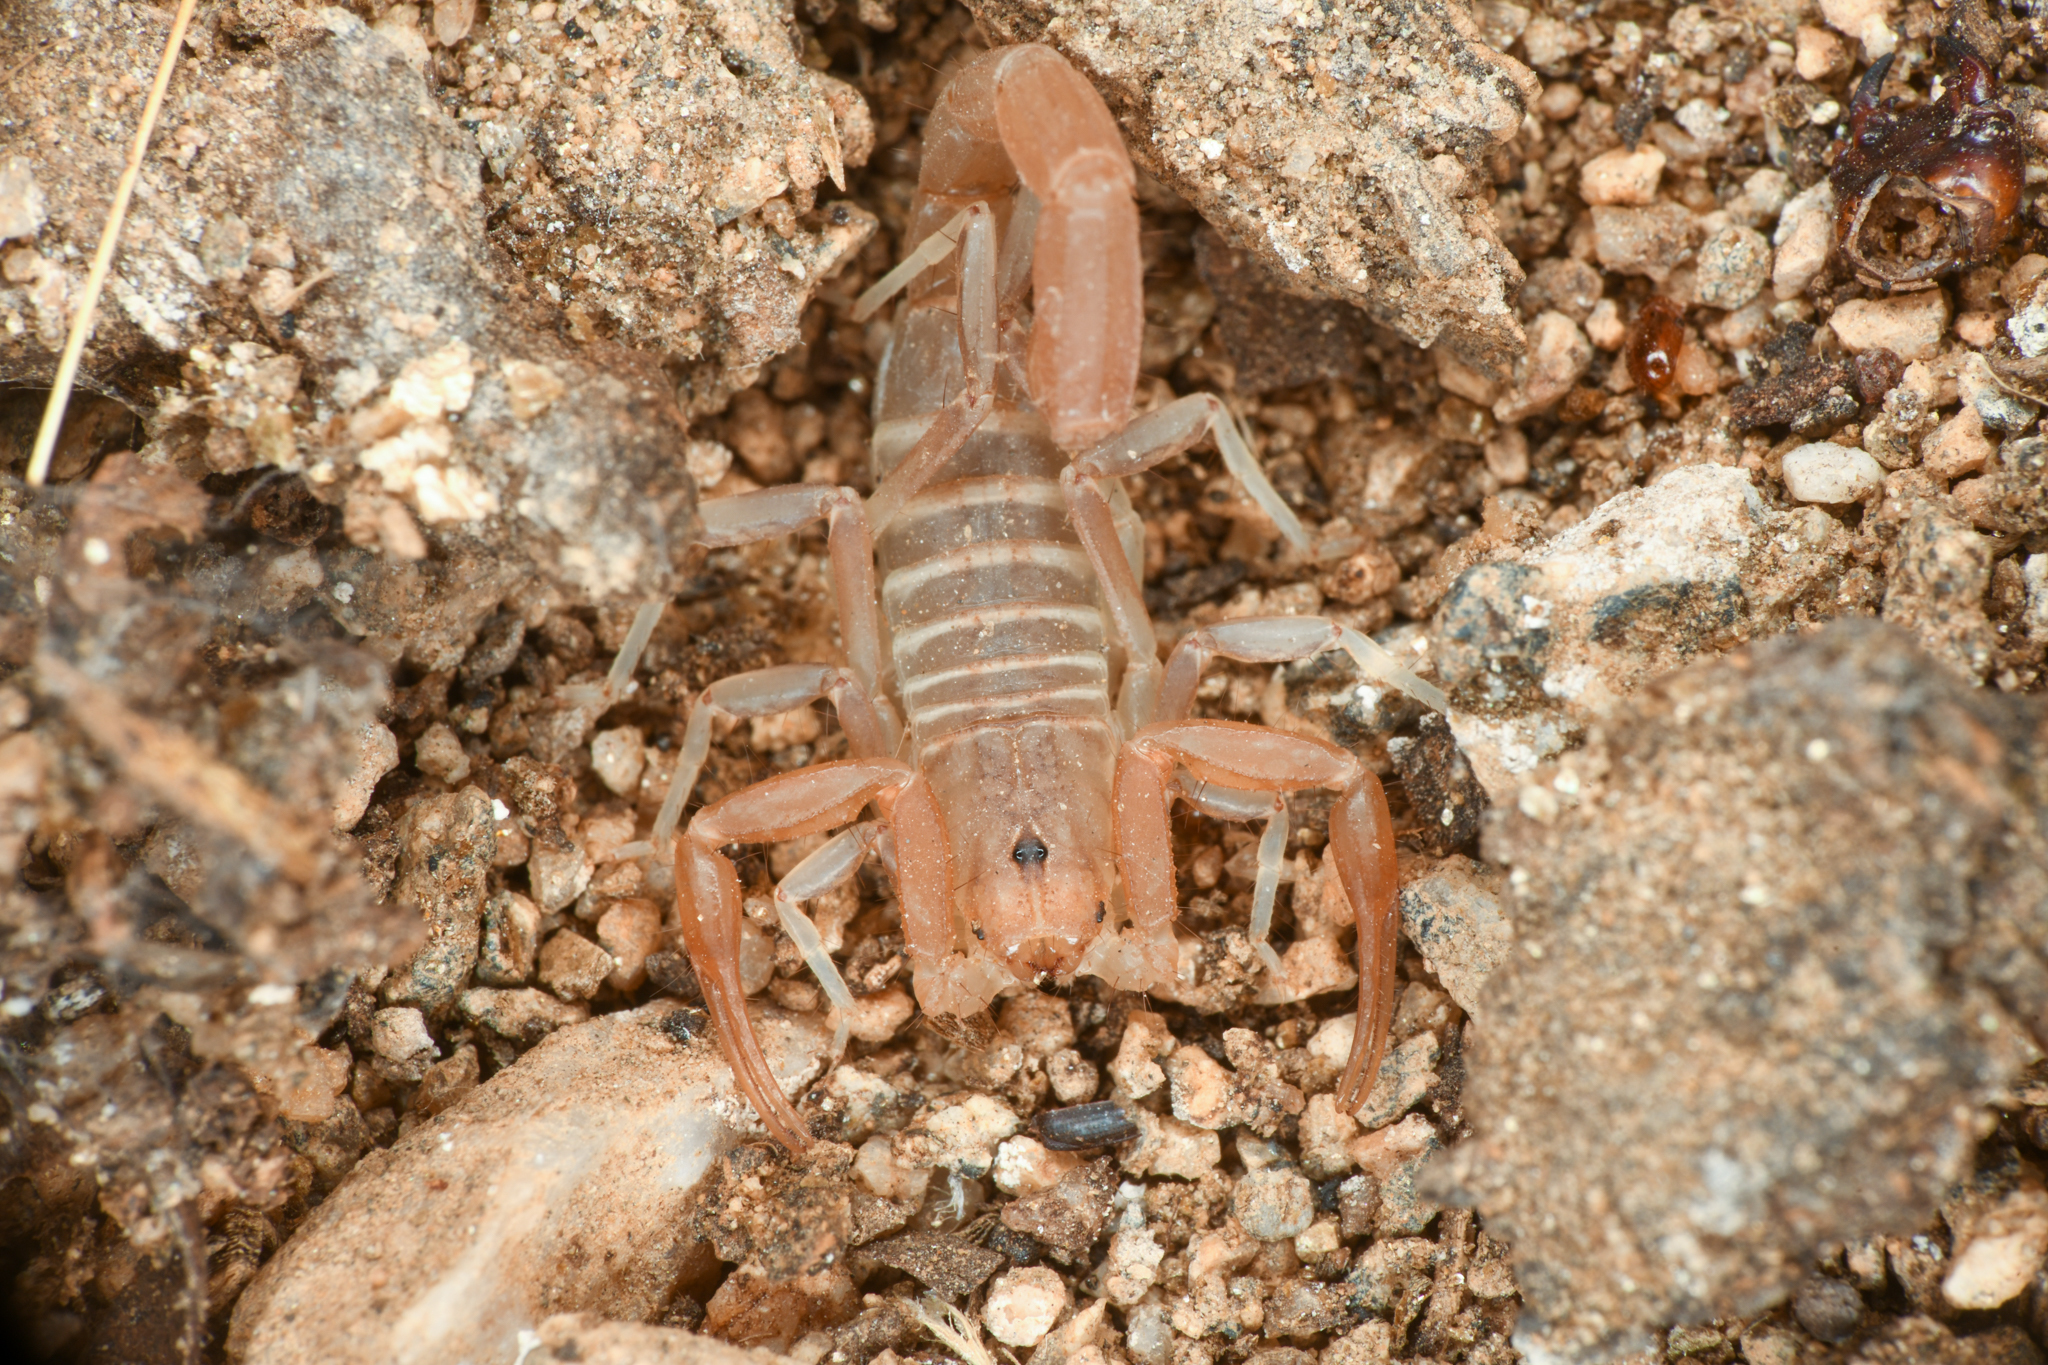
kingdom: Animalia
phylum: Arthropoda
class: Arachnida
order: Scorpiones
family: Vaejovidae
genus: Paravaejovis
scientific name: Paravaejovis waeringi
